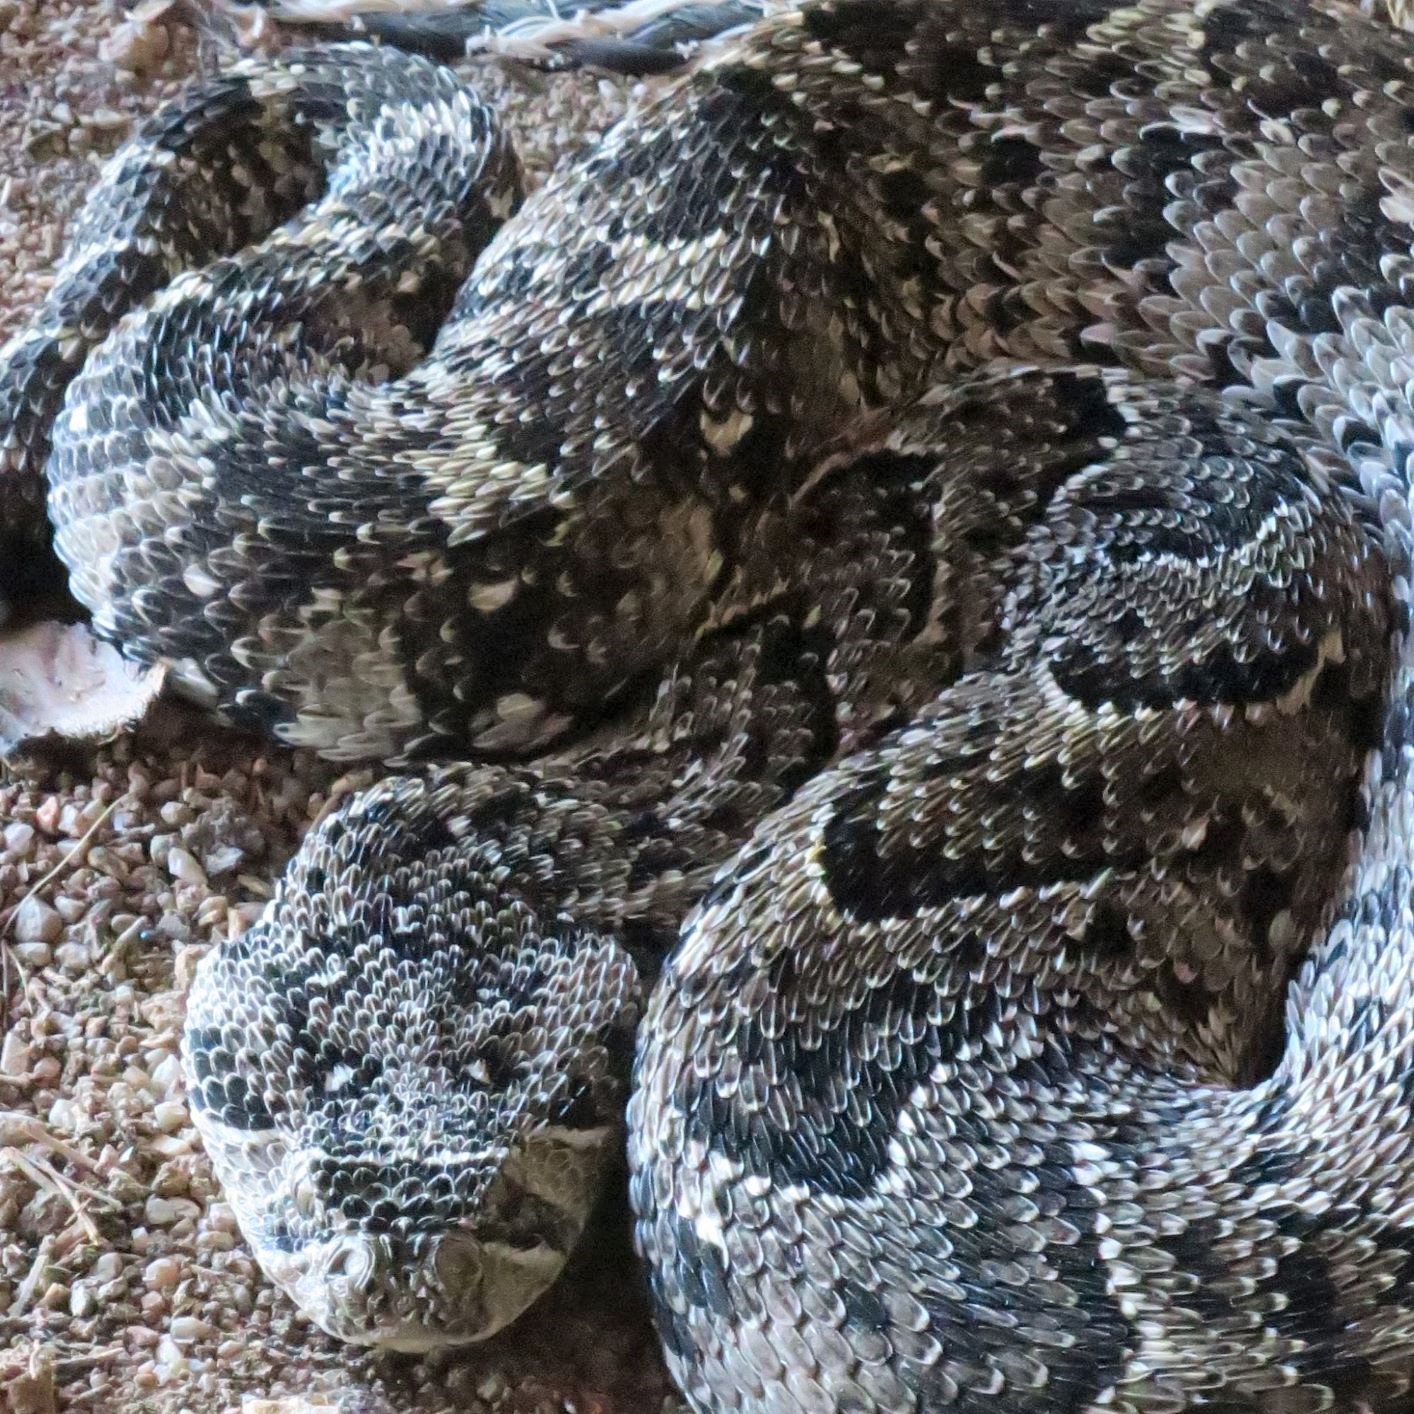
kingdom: Animalia
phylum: Chordata
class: Squamata
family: Viperidae
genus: Bitis
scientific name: Bitis arietans
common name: Puff adder
